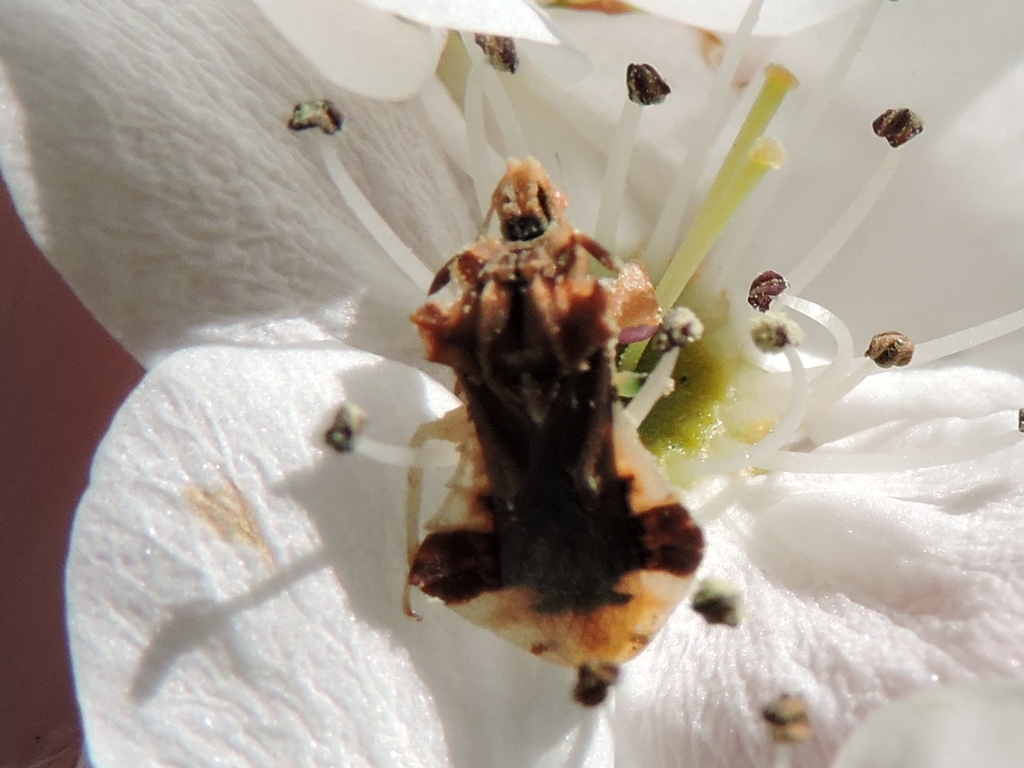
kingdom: Animalia
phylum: Arthropoda
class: Insecta
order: Hemiptera
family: Reduviidae
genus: Phymata
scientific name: Phymata fasciata
